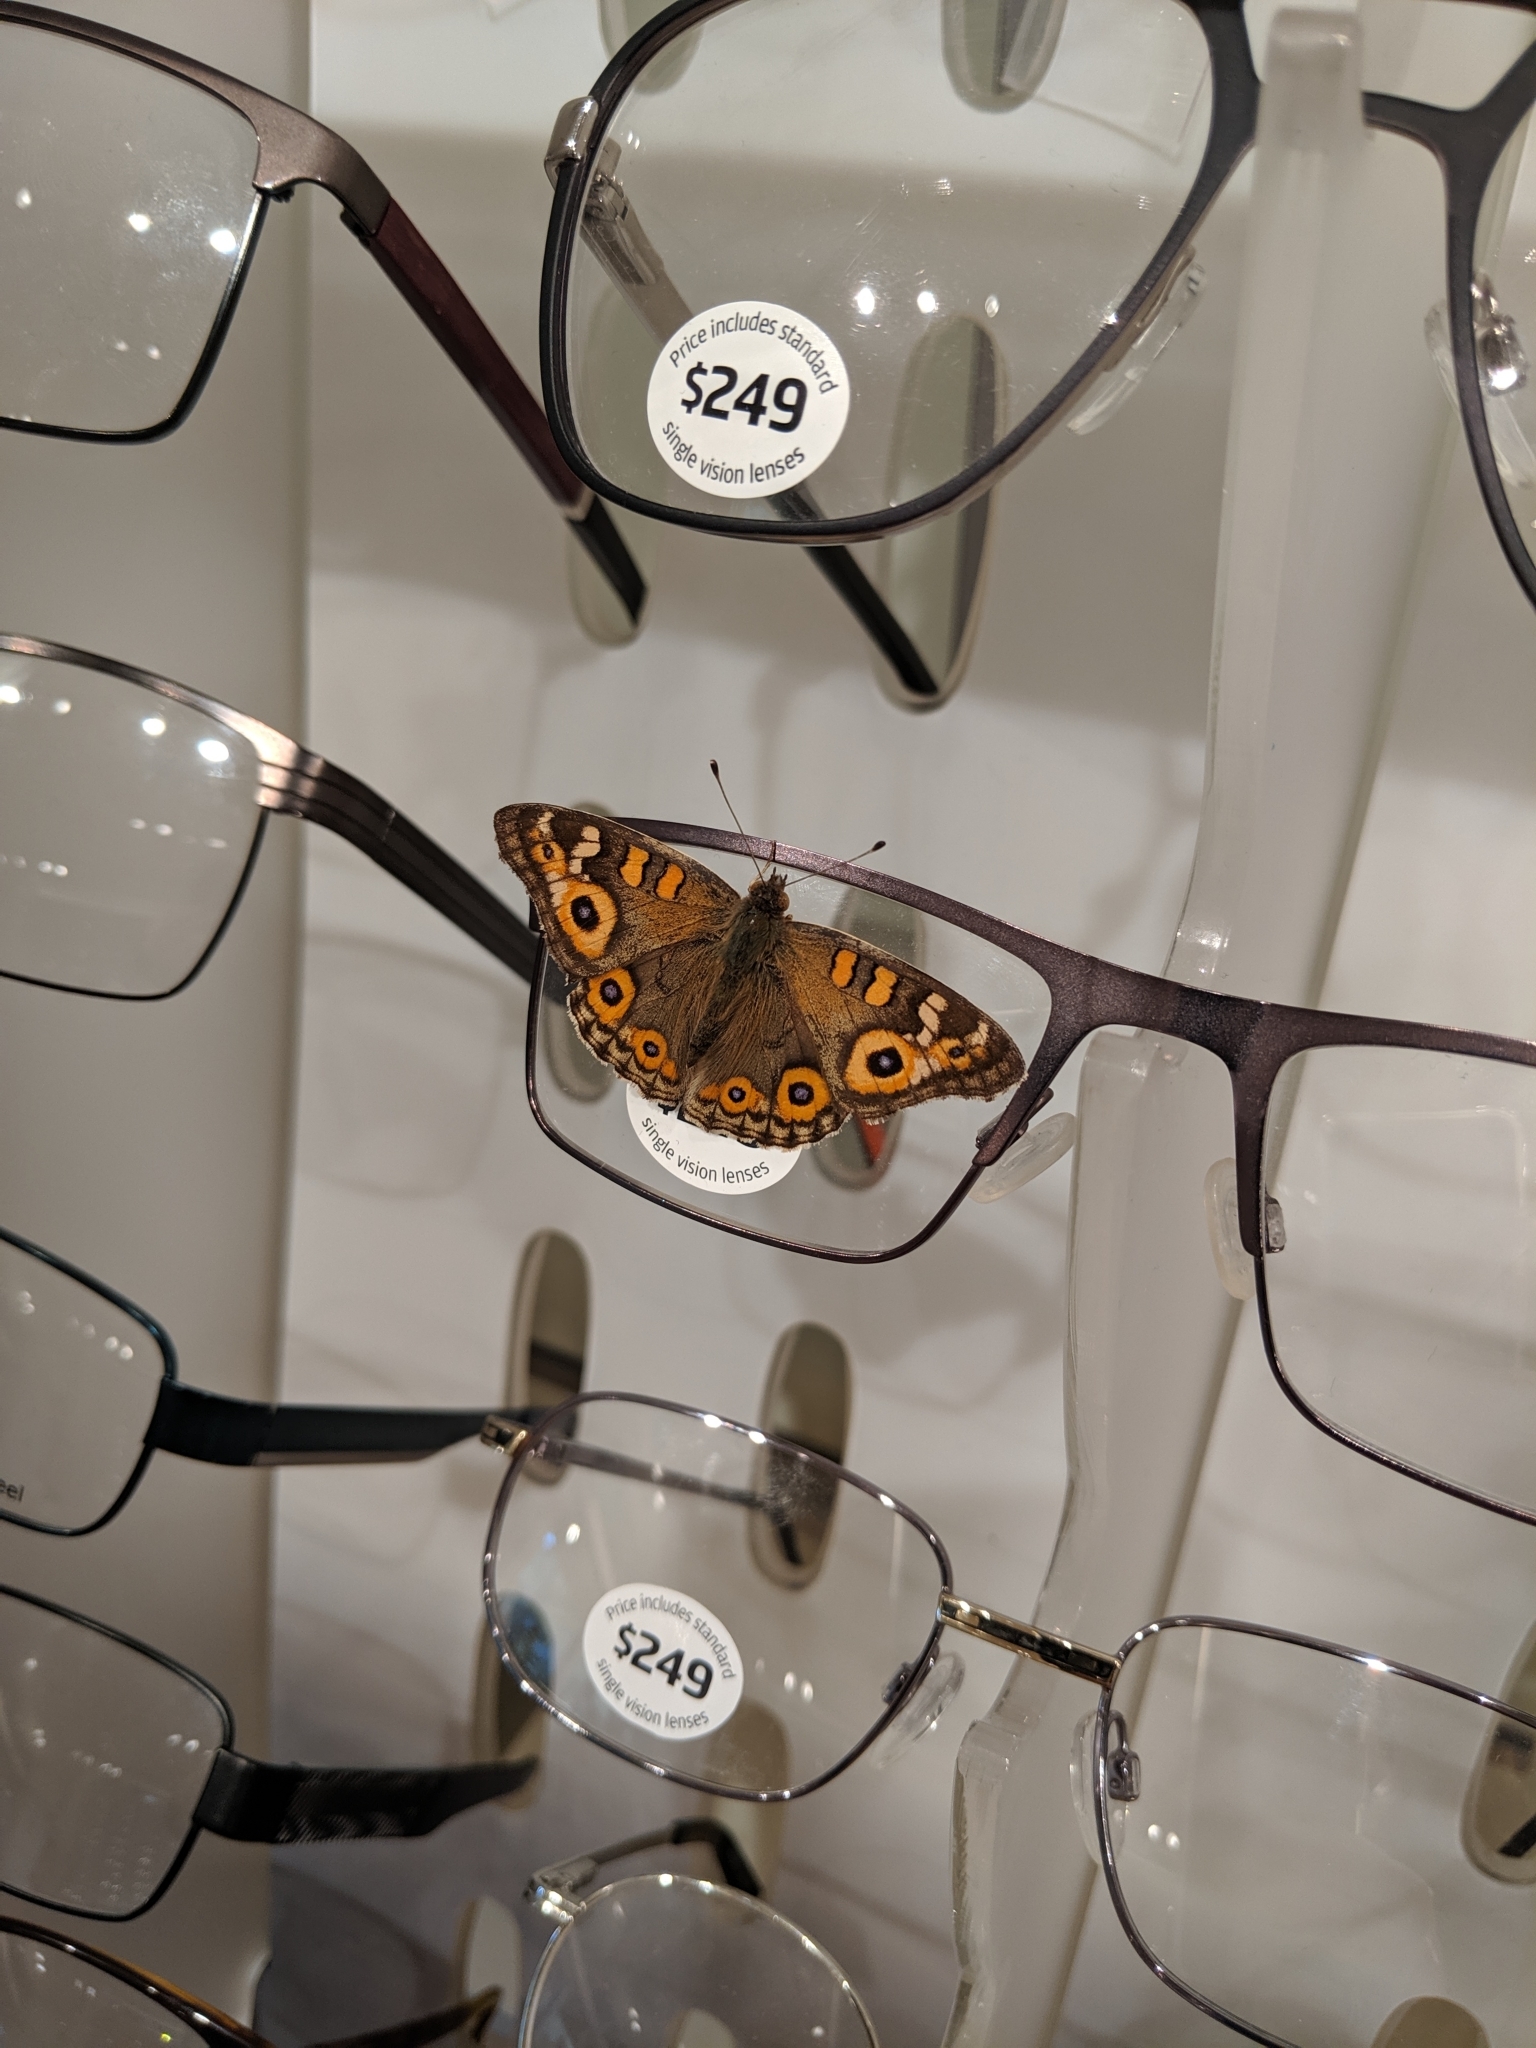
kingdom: Animalia
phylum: Arthropoda
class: Insecta
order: Lepidoptera
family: Nymphalidae
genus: Junonia
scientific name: Junonia villida
